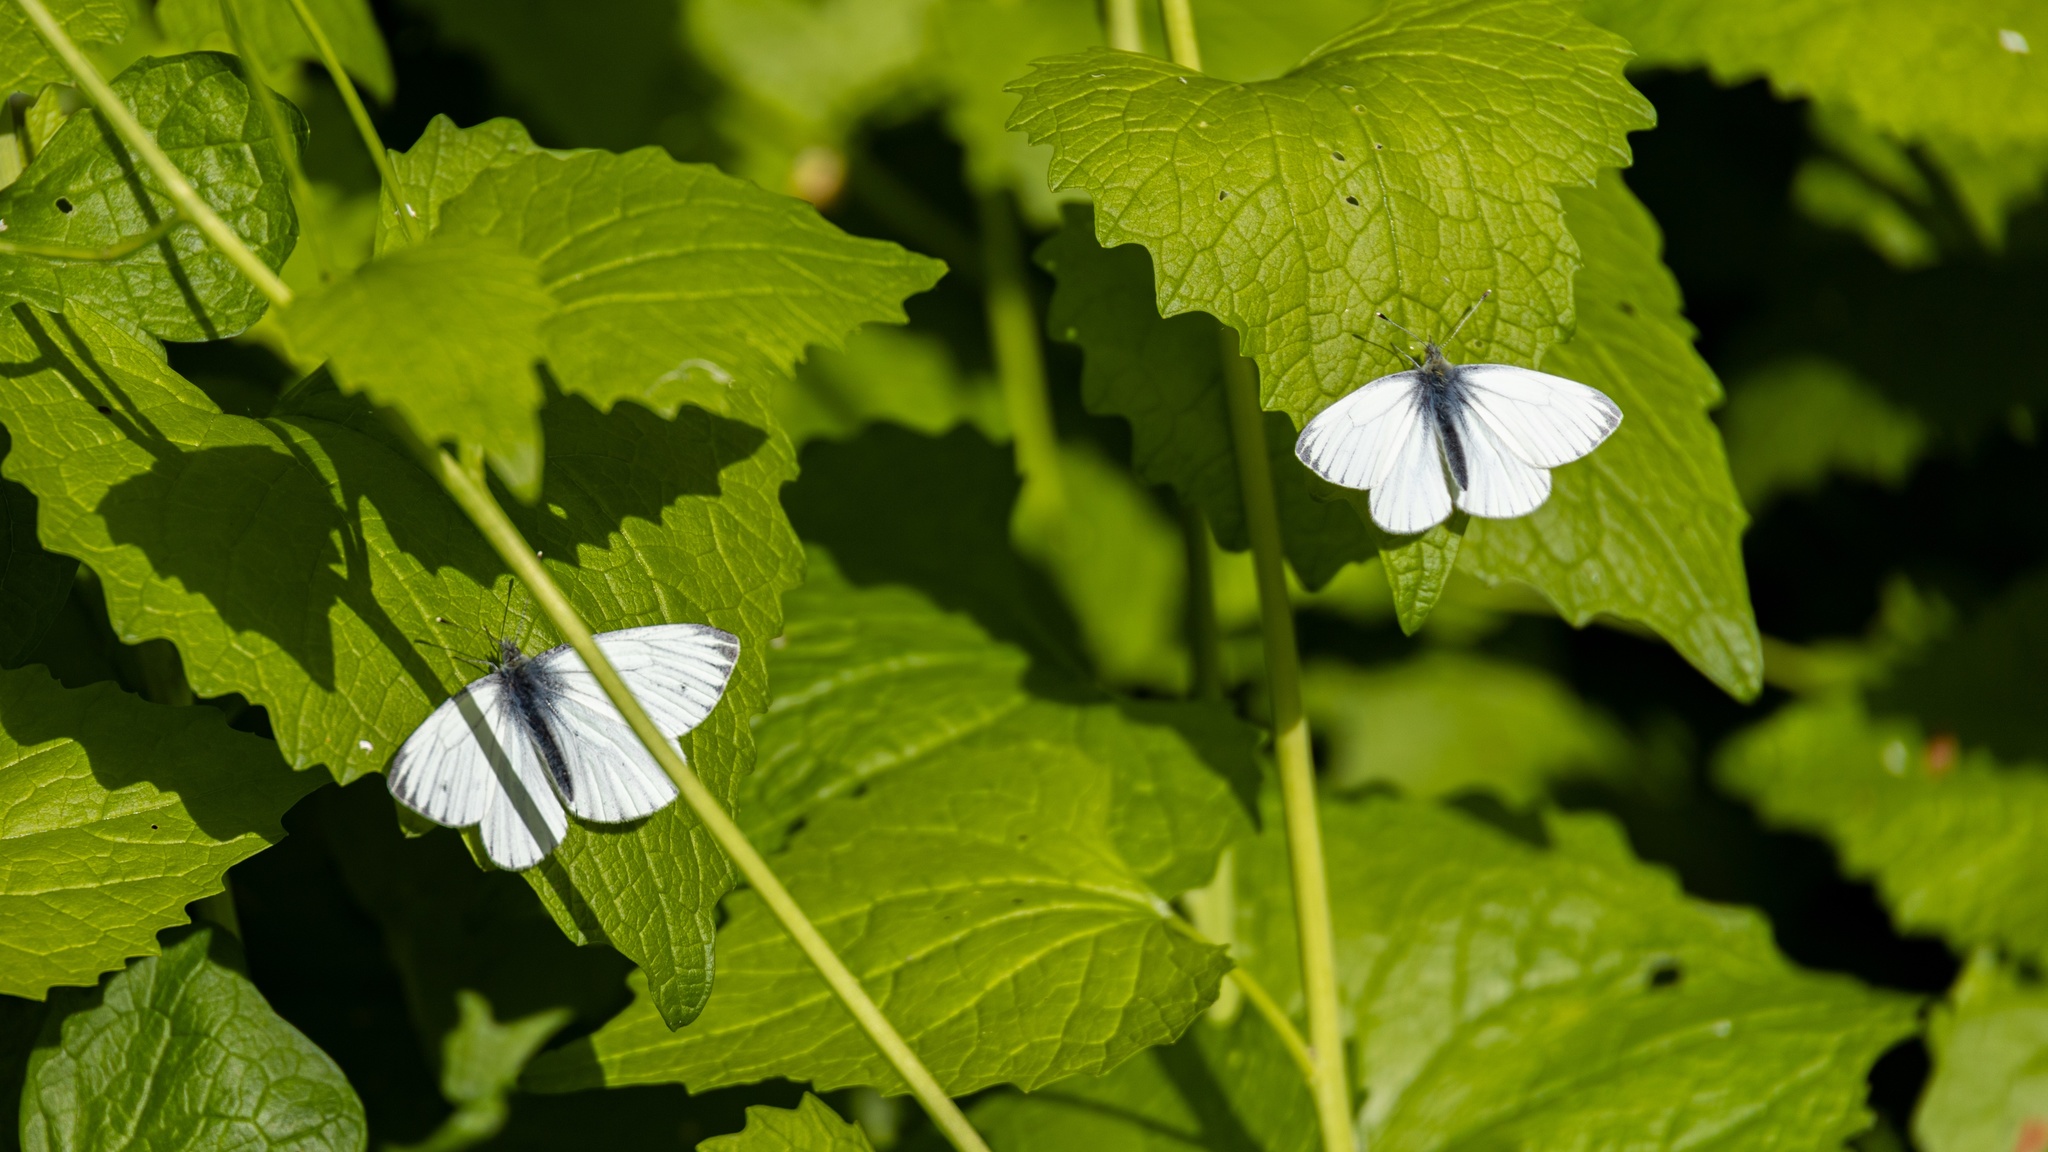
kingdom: Animalia
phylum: Arthropoda
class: Insecta
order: Lepidoptera
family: Pieridae
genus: Pieris
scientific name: Pieris napi
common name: Green-veined white
